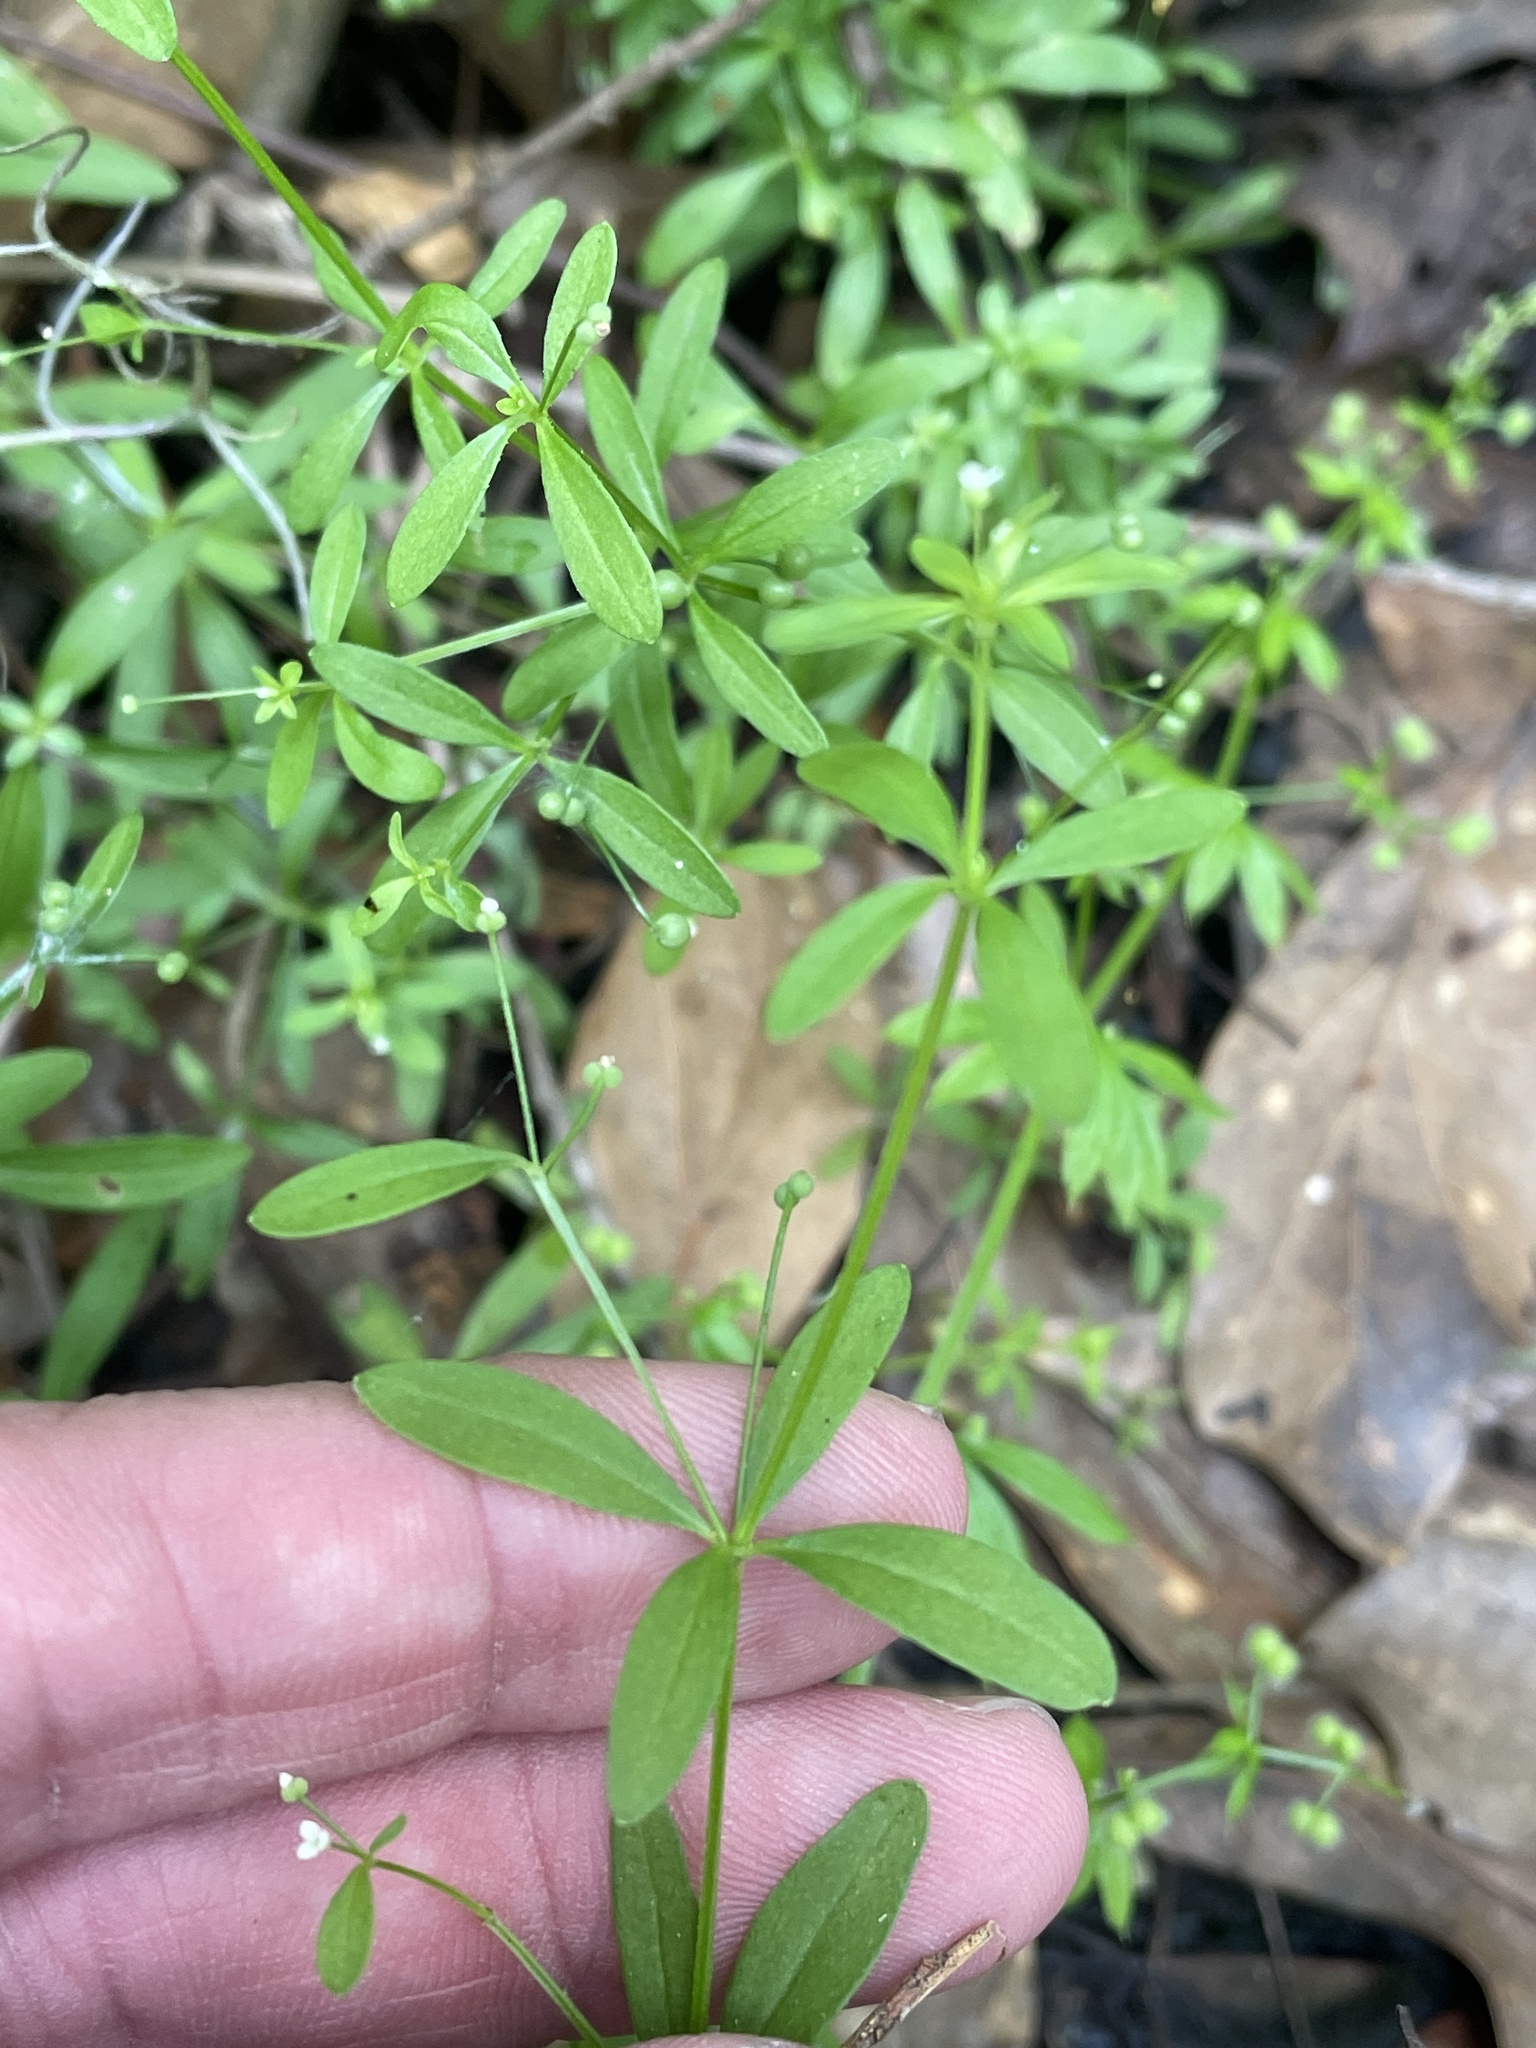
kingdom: Plantae
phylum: Tracheophyta
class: Magnoliopsida
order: Gentianales
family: Rubiaceae
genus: Galium
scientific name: Galium tinctorium
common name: Bedstraw
